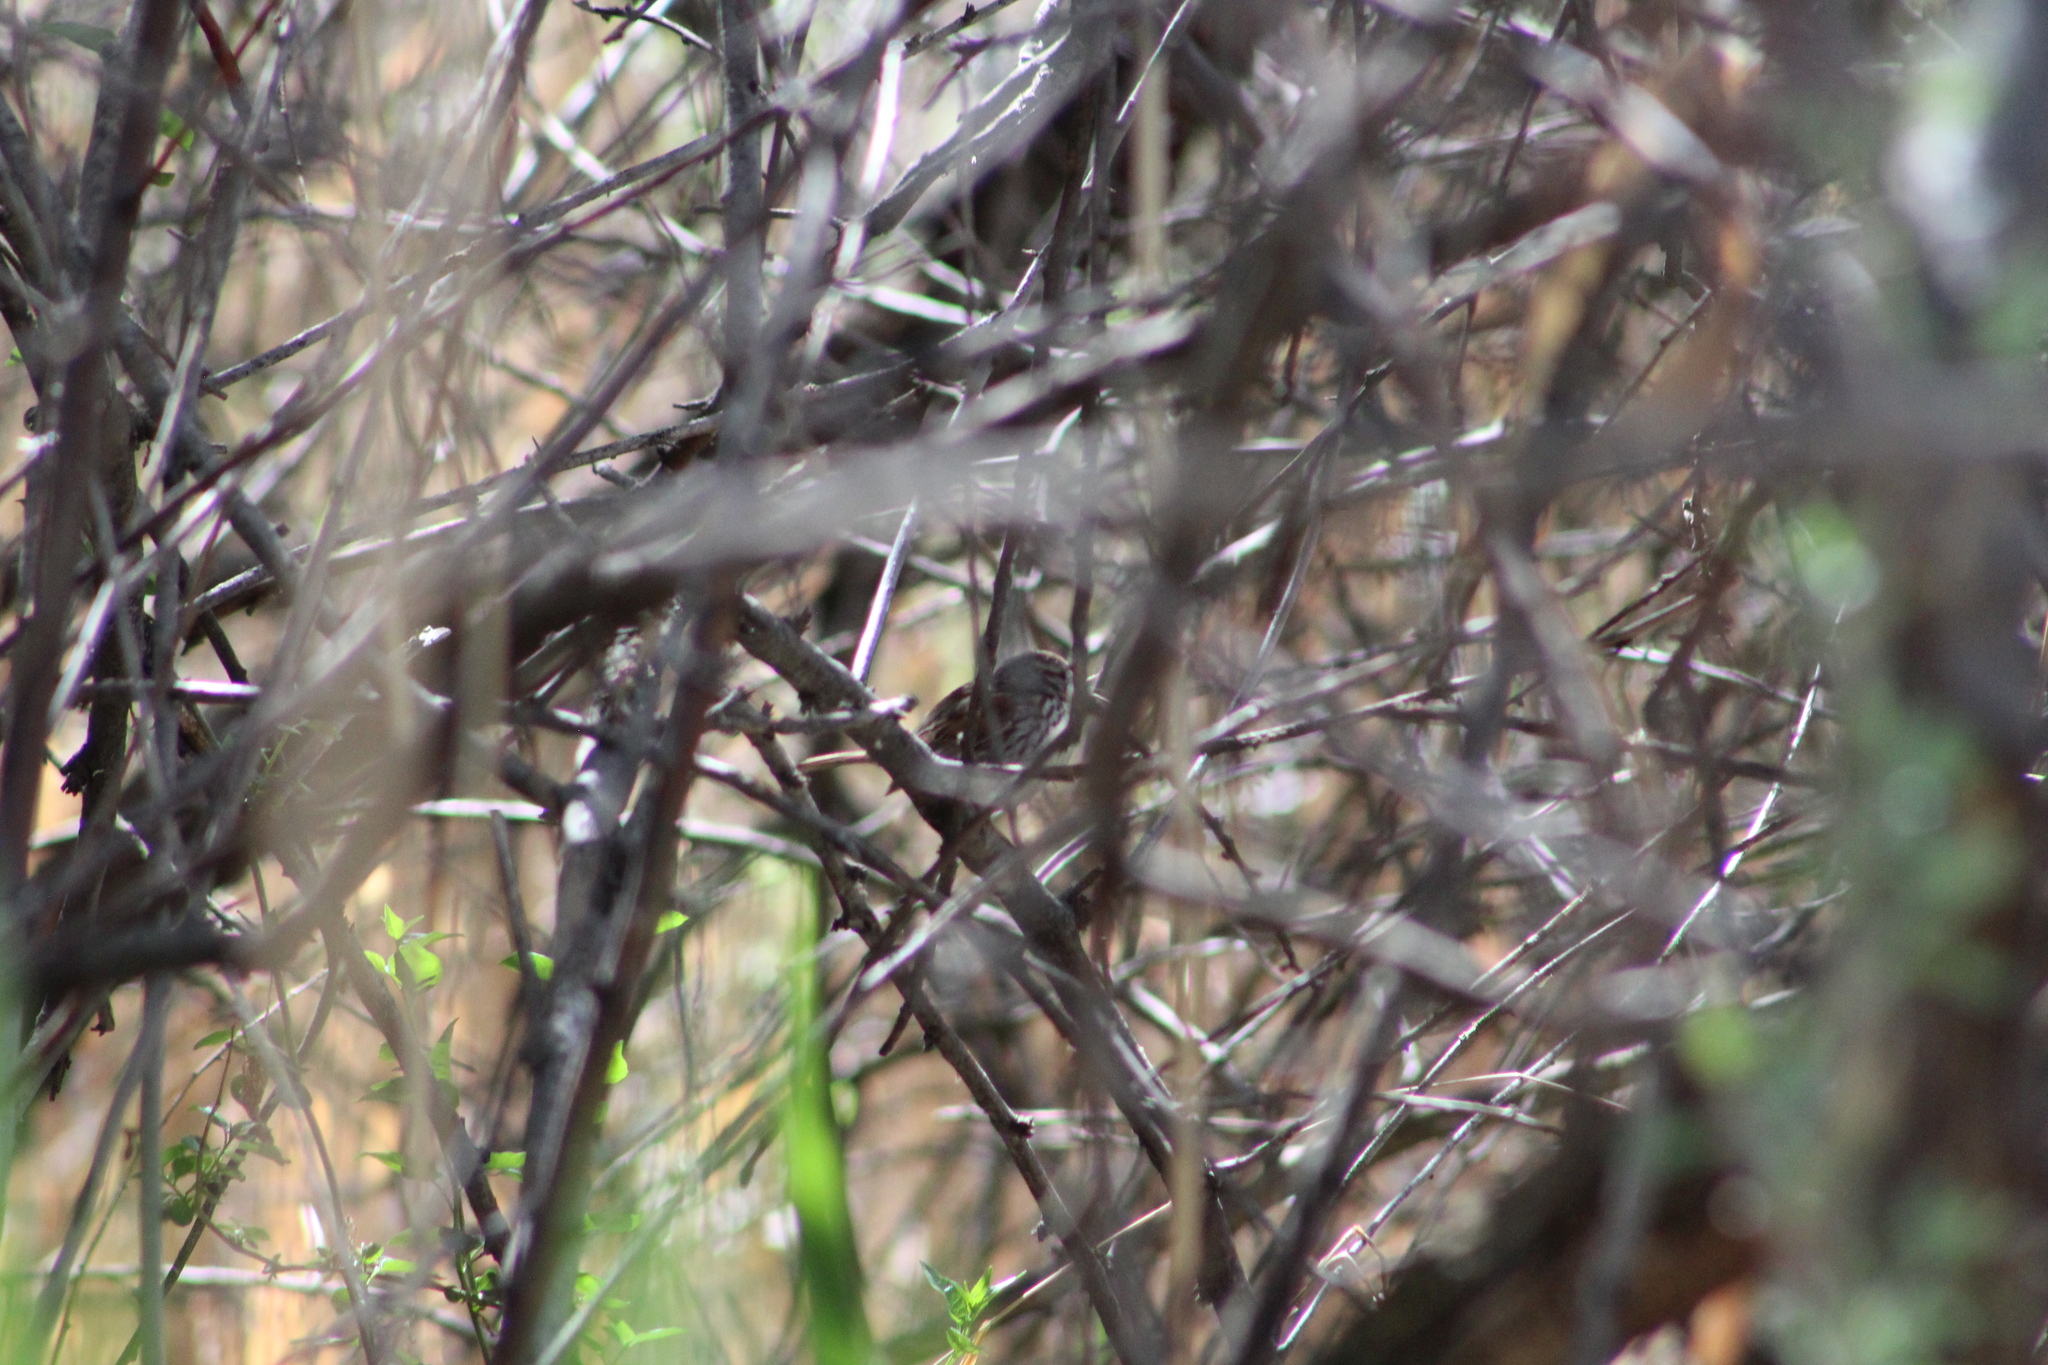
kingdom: Animalia
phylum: Chordata
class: Aves
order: Passeriformes
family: Passerellidae
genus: Melospiza
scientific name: Melospiza melodia
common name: Song sparrow
